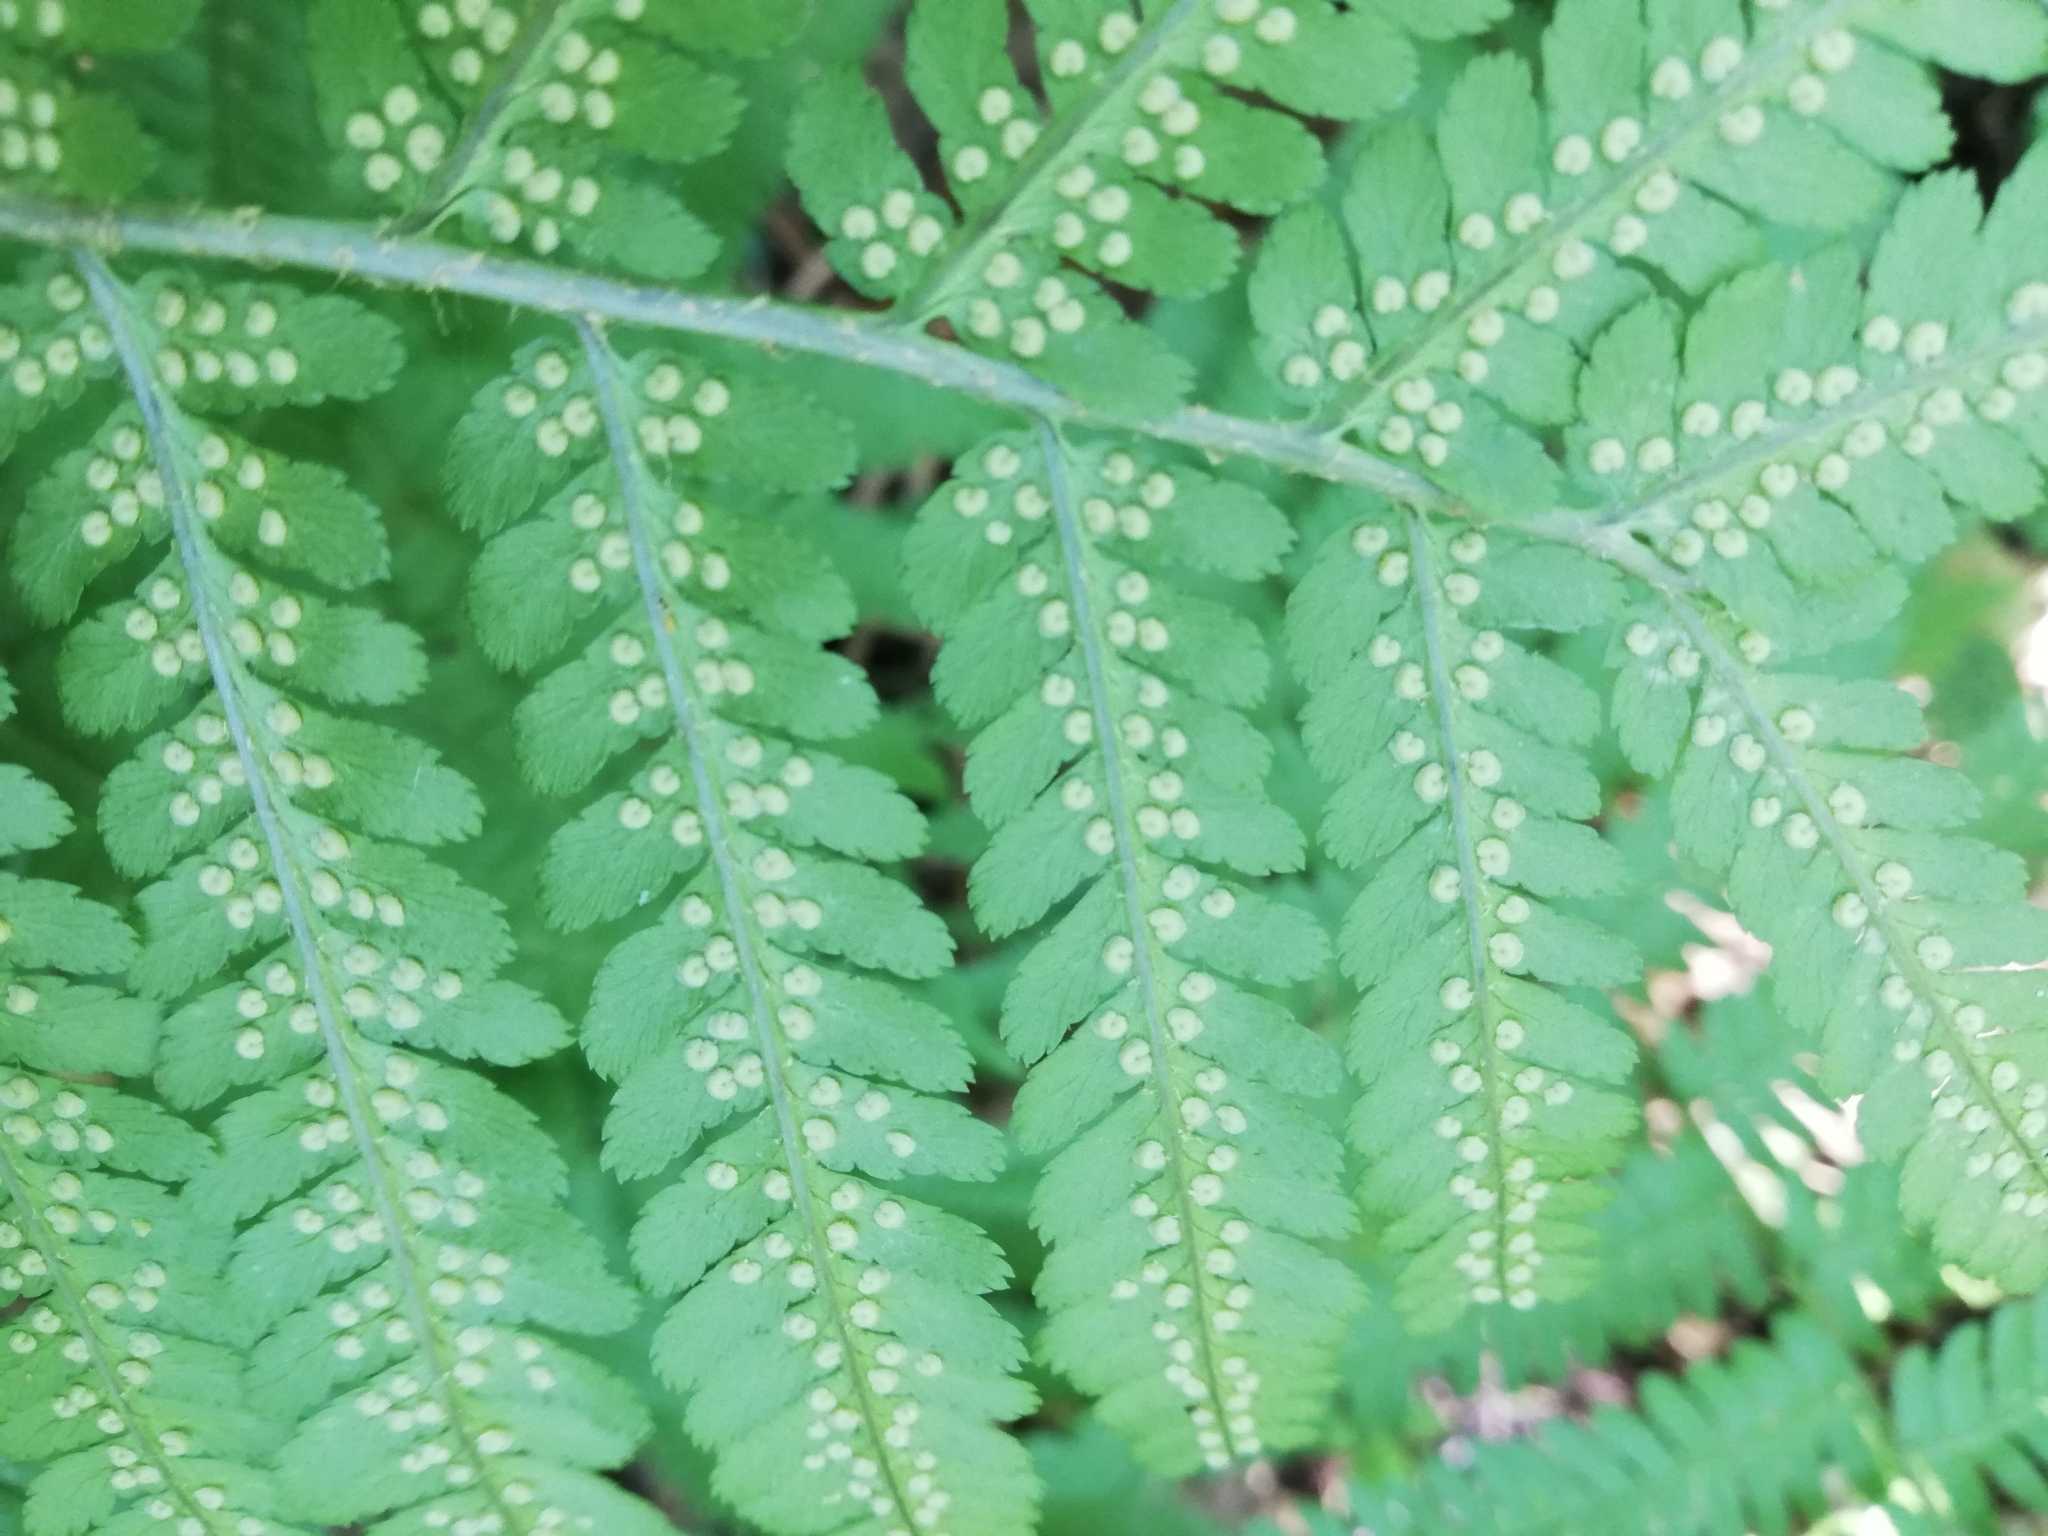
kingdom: Plantae
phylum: Tracheophyta
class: Polypodiopsida
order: Polypodiales
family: Dryopteridaceae
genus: Dryopteris
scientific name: Dryopteris filix-mas
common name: Male fern
